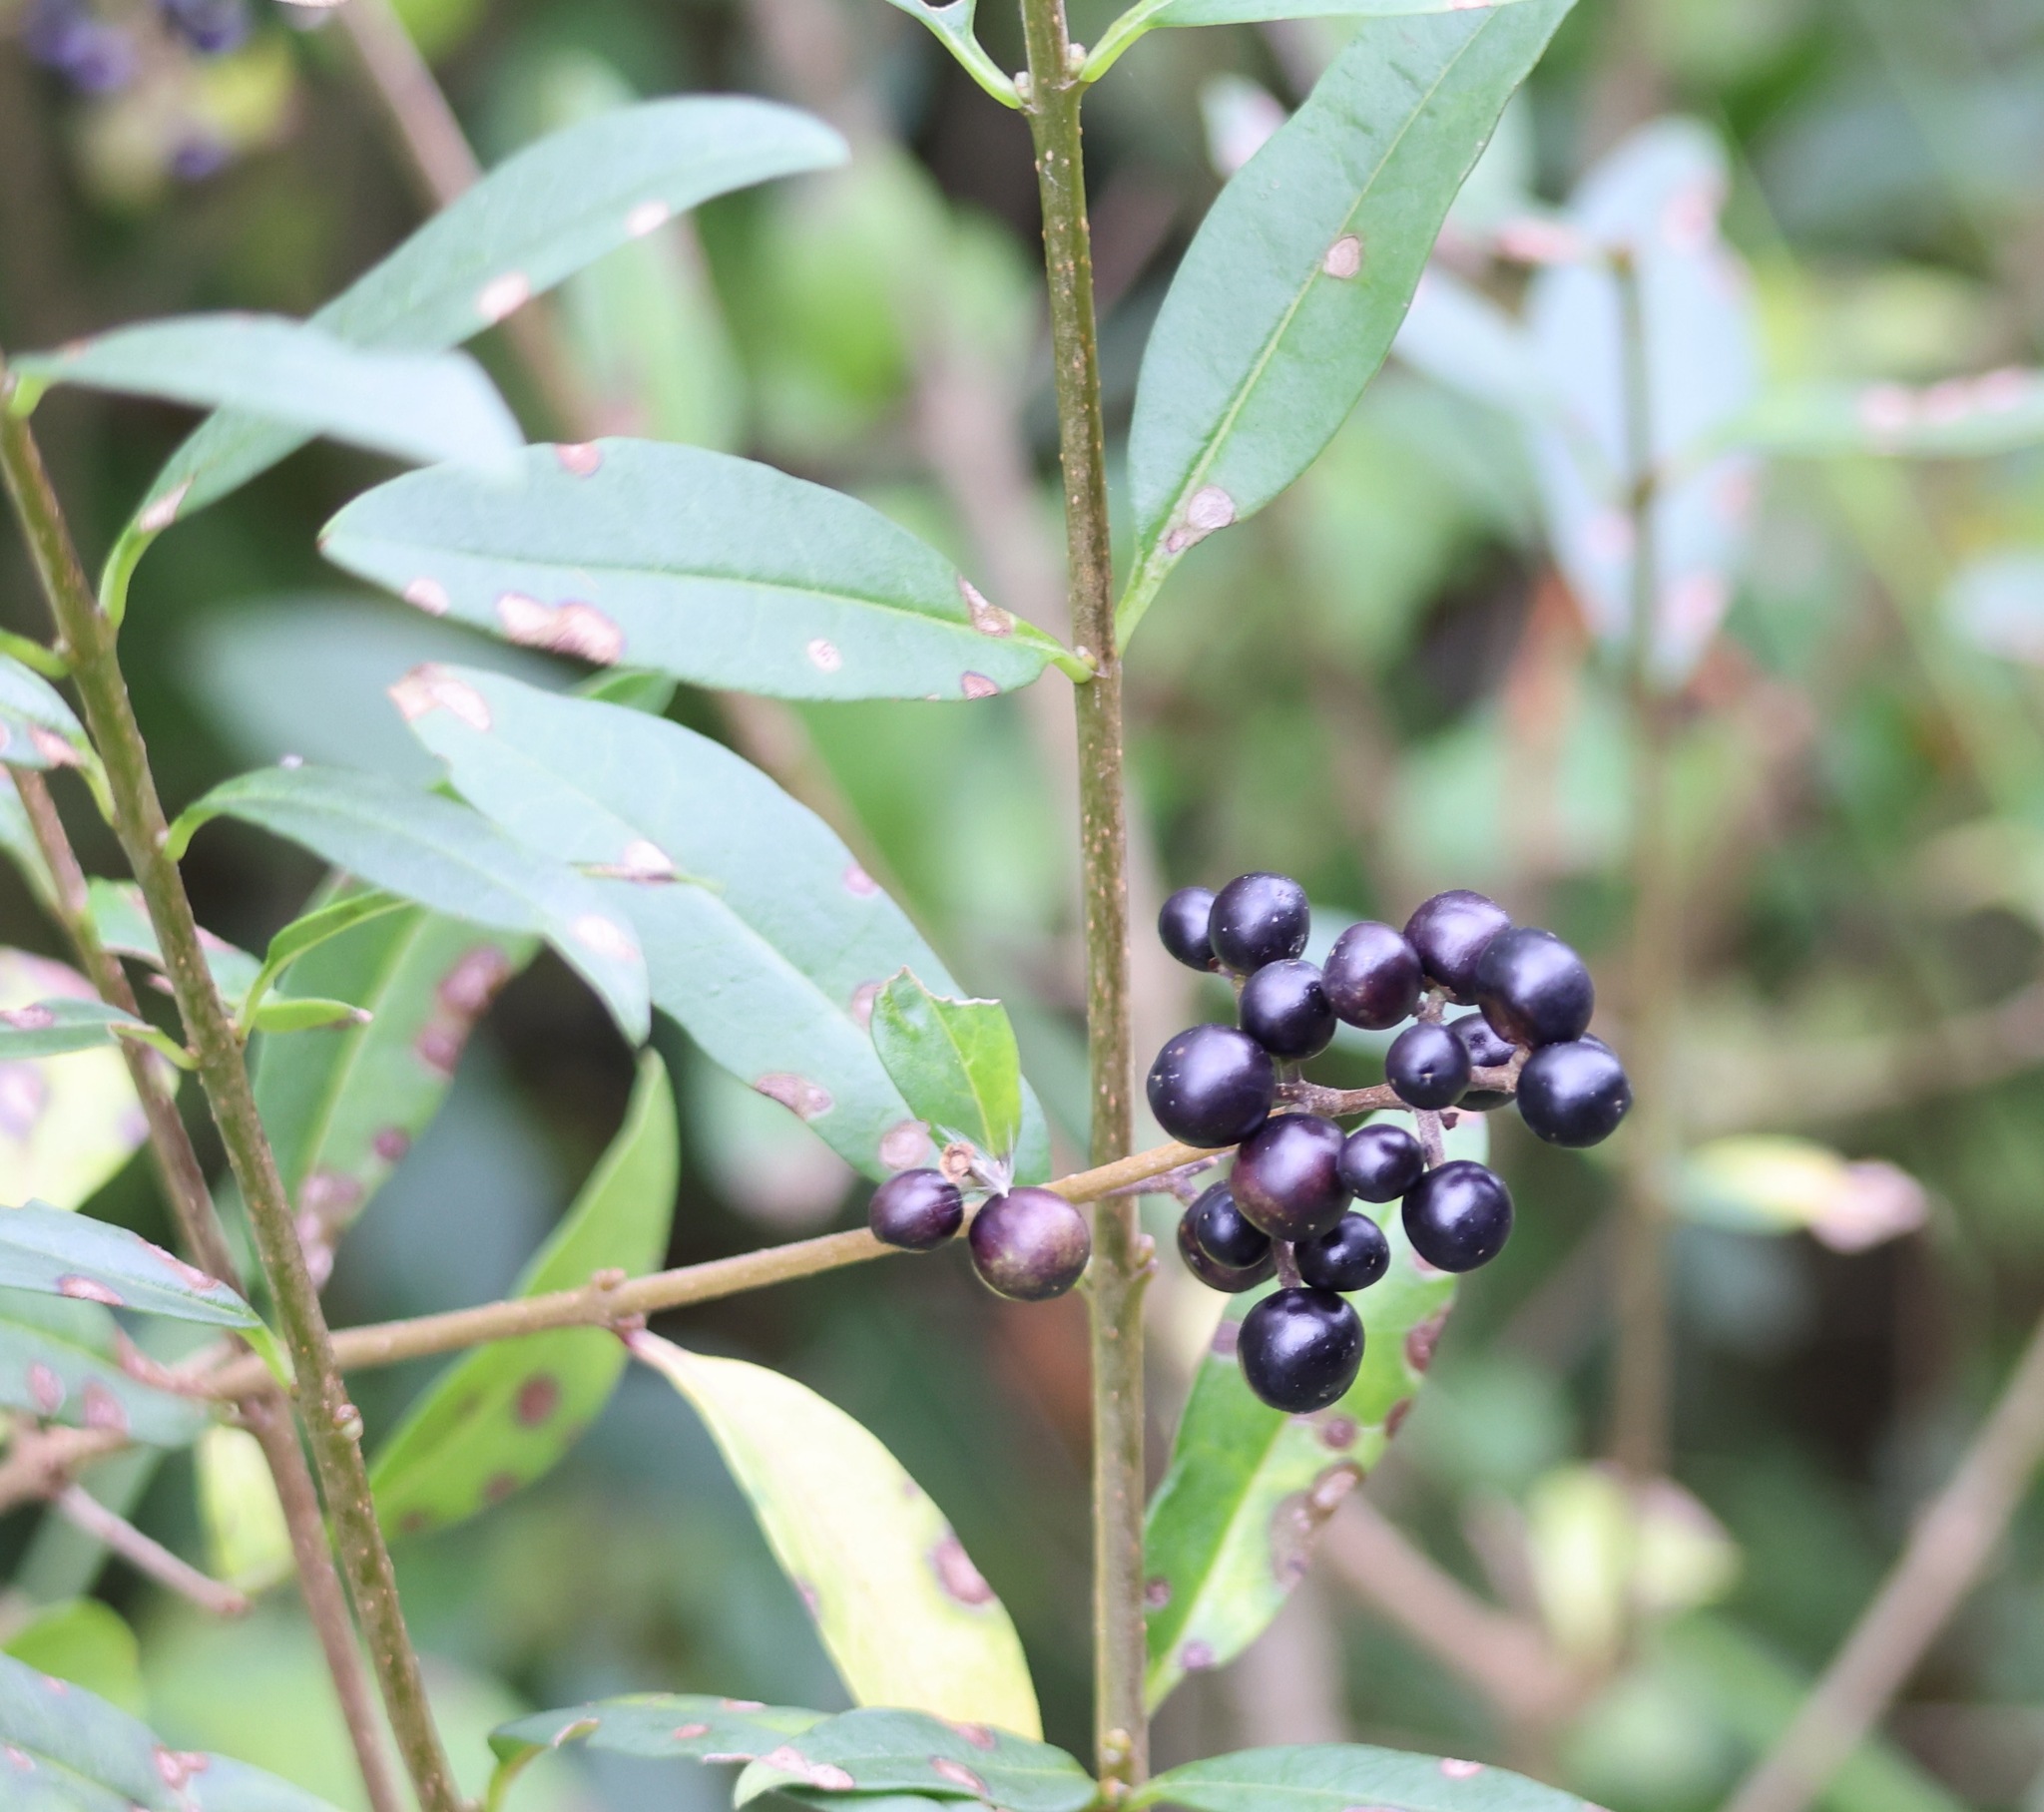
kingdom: Plantae
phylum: Tracheophyta
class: Magnoliopsida
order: Lamiales
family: Oleaceae
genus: Ligustrum
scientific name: Ligustrum vulgare
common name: Wild privet
